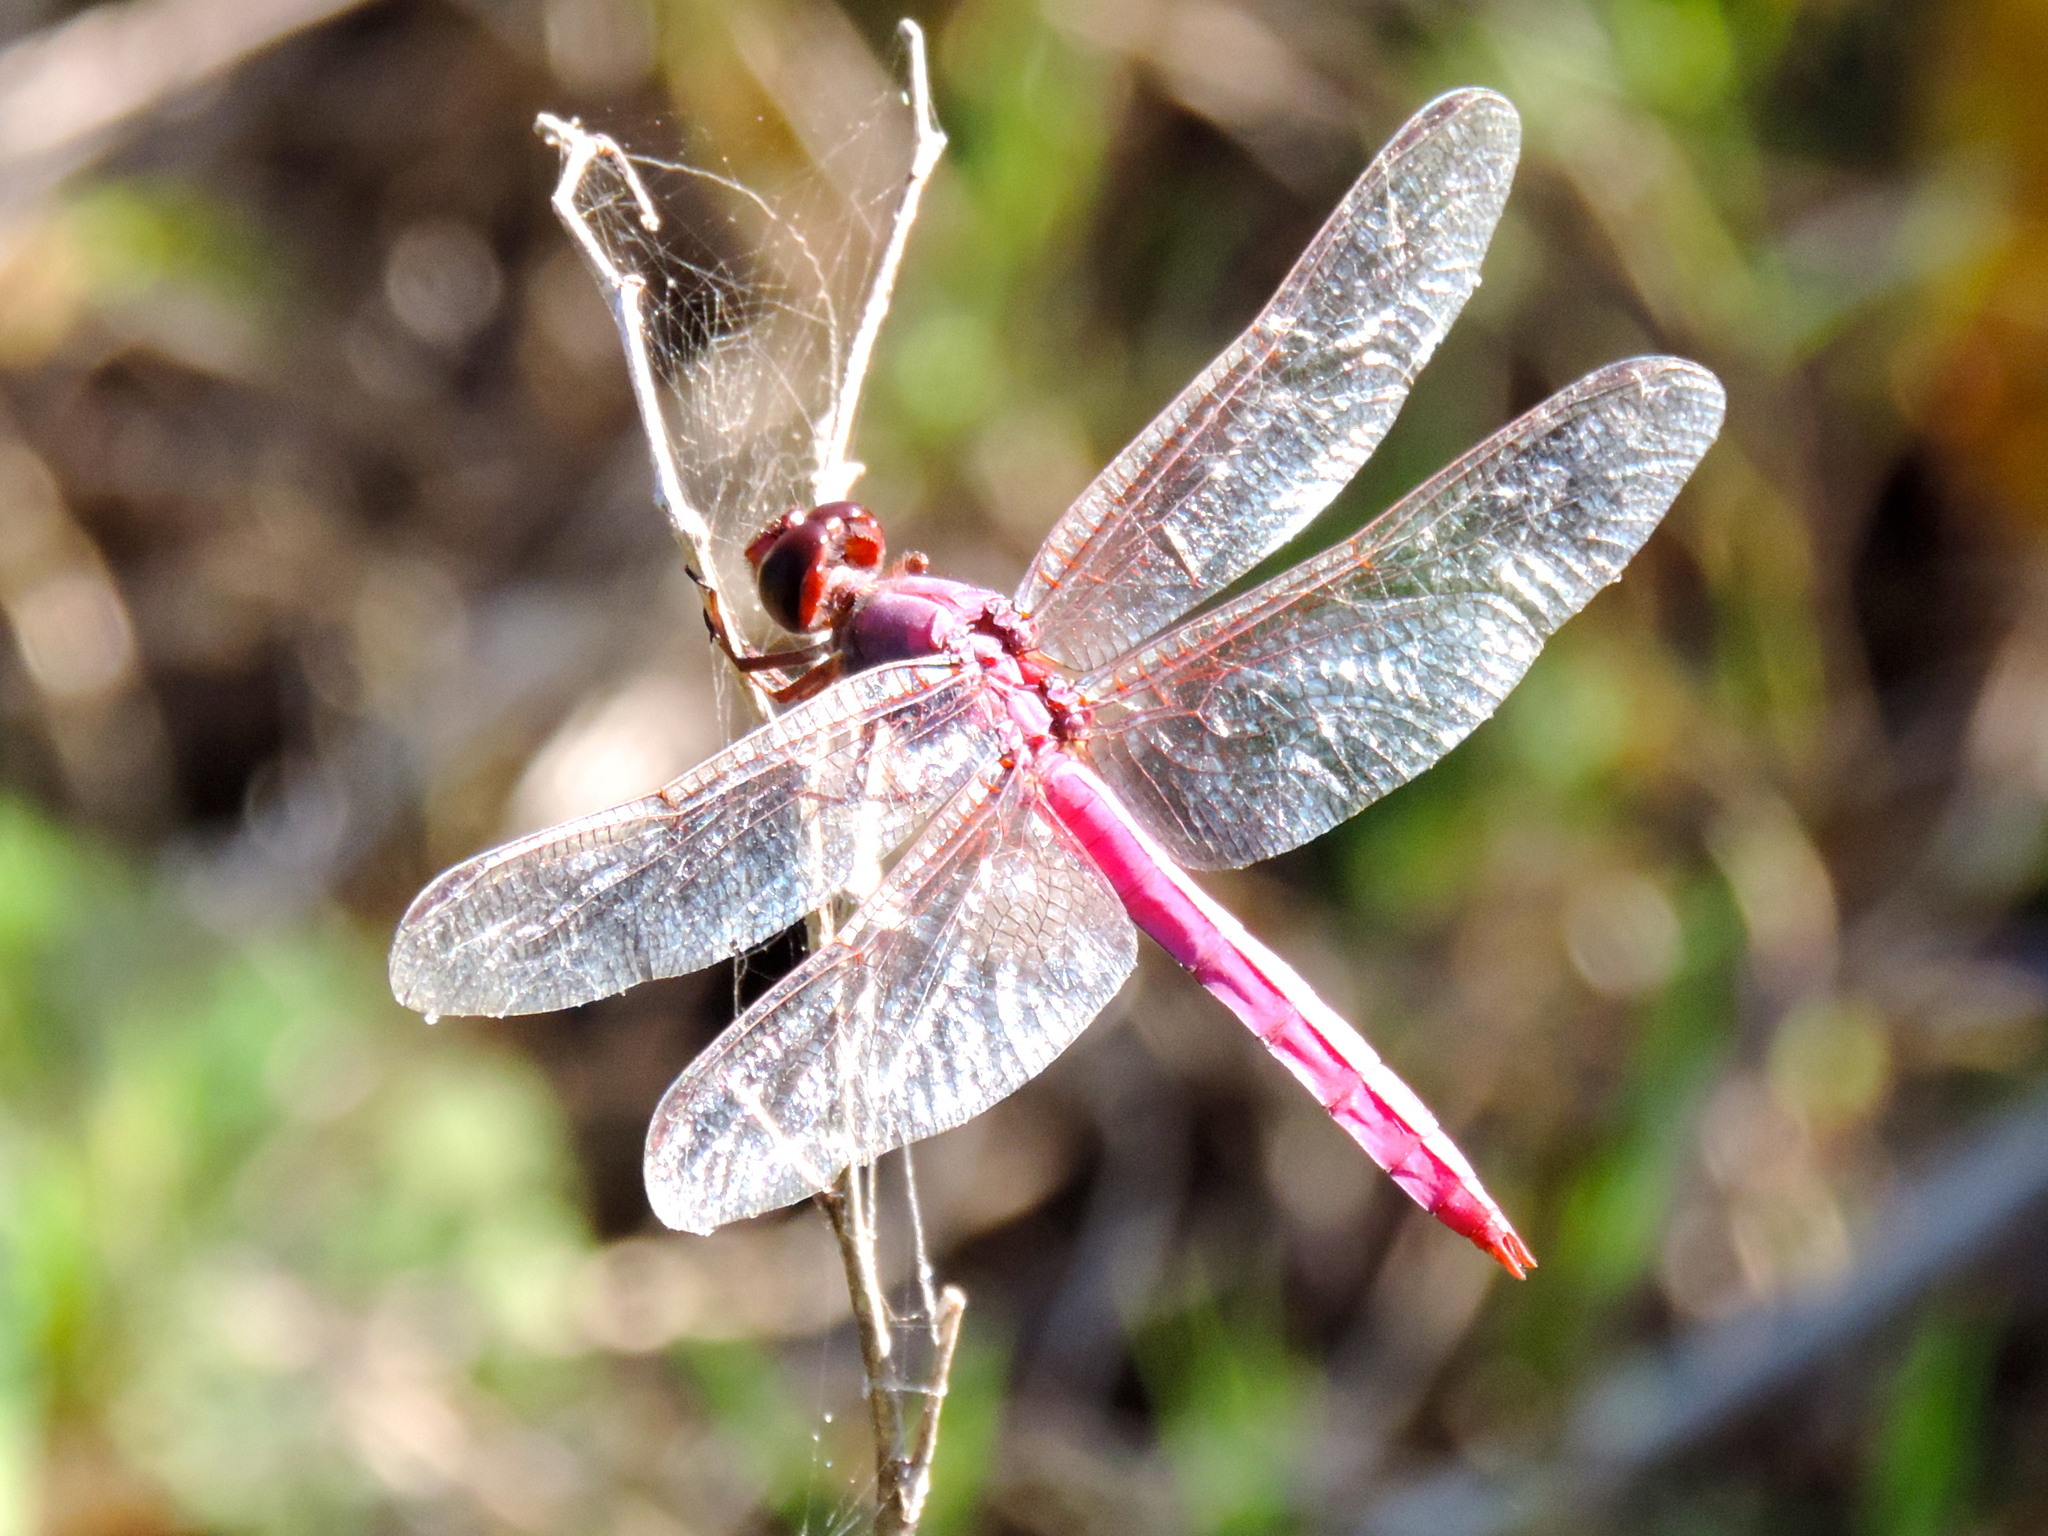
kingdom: Animalia
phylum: Arthropoda
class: Insecta
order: Odonata
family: Libellulidae
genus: Orthemis
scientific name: Orthemis ferruginea
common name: Roseate skimmer
